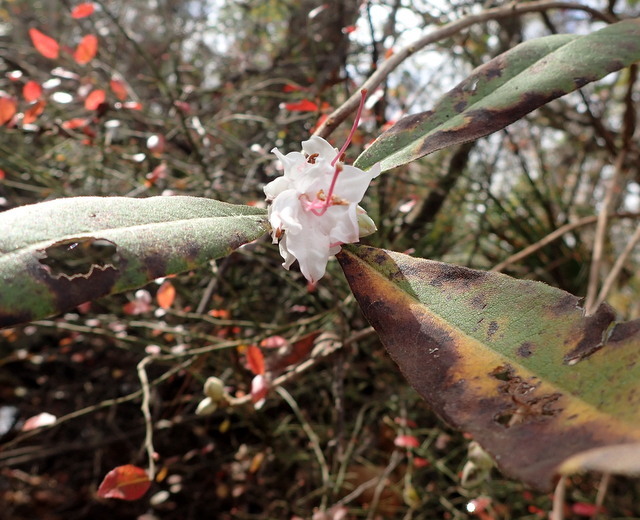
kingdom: Plantae
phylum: Tracheophyta
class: Magnoliopsida
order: Ericales
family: Ericaceae
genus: Rhododendron
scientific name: Rhododendron canescens
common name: Mountain azalea
